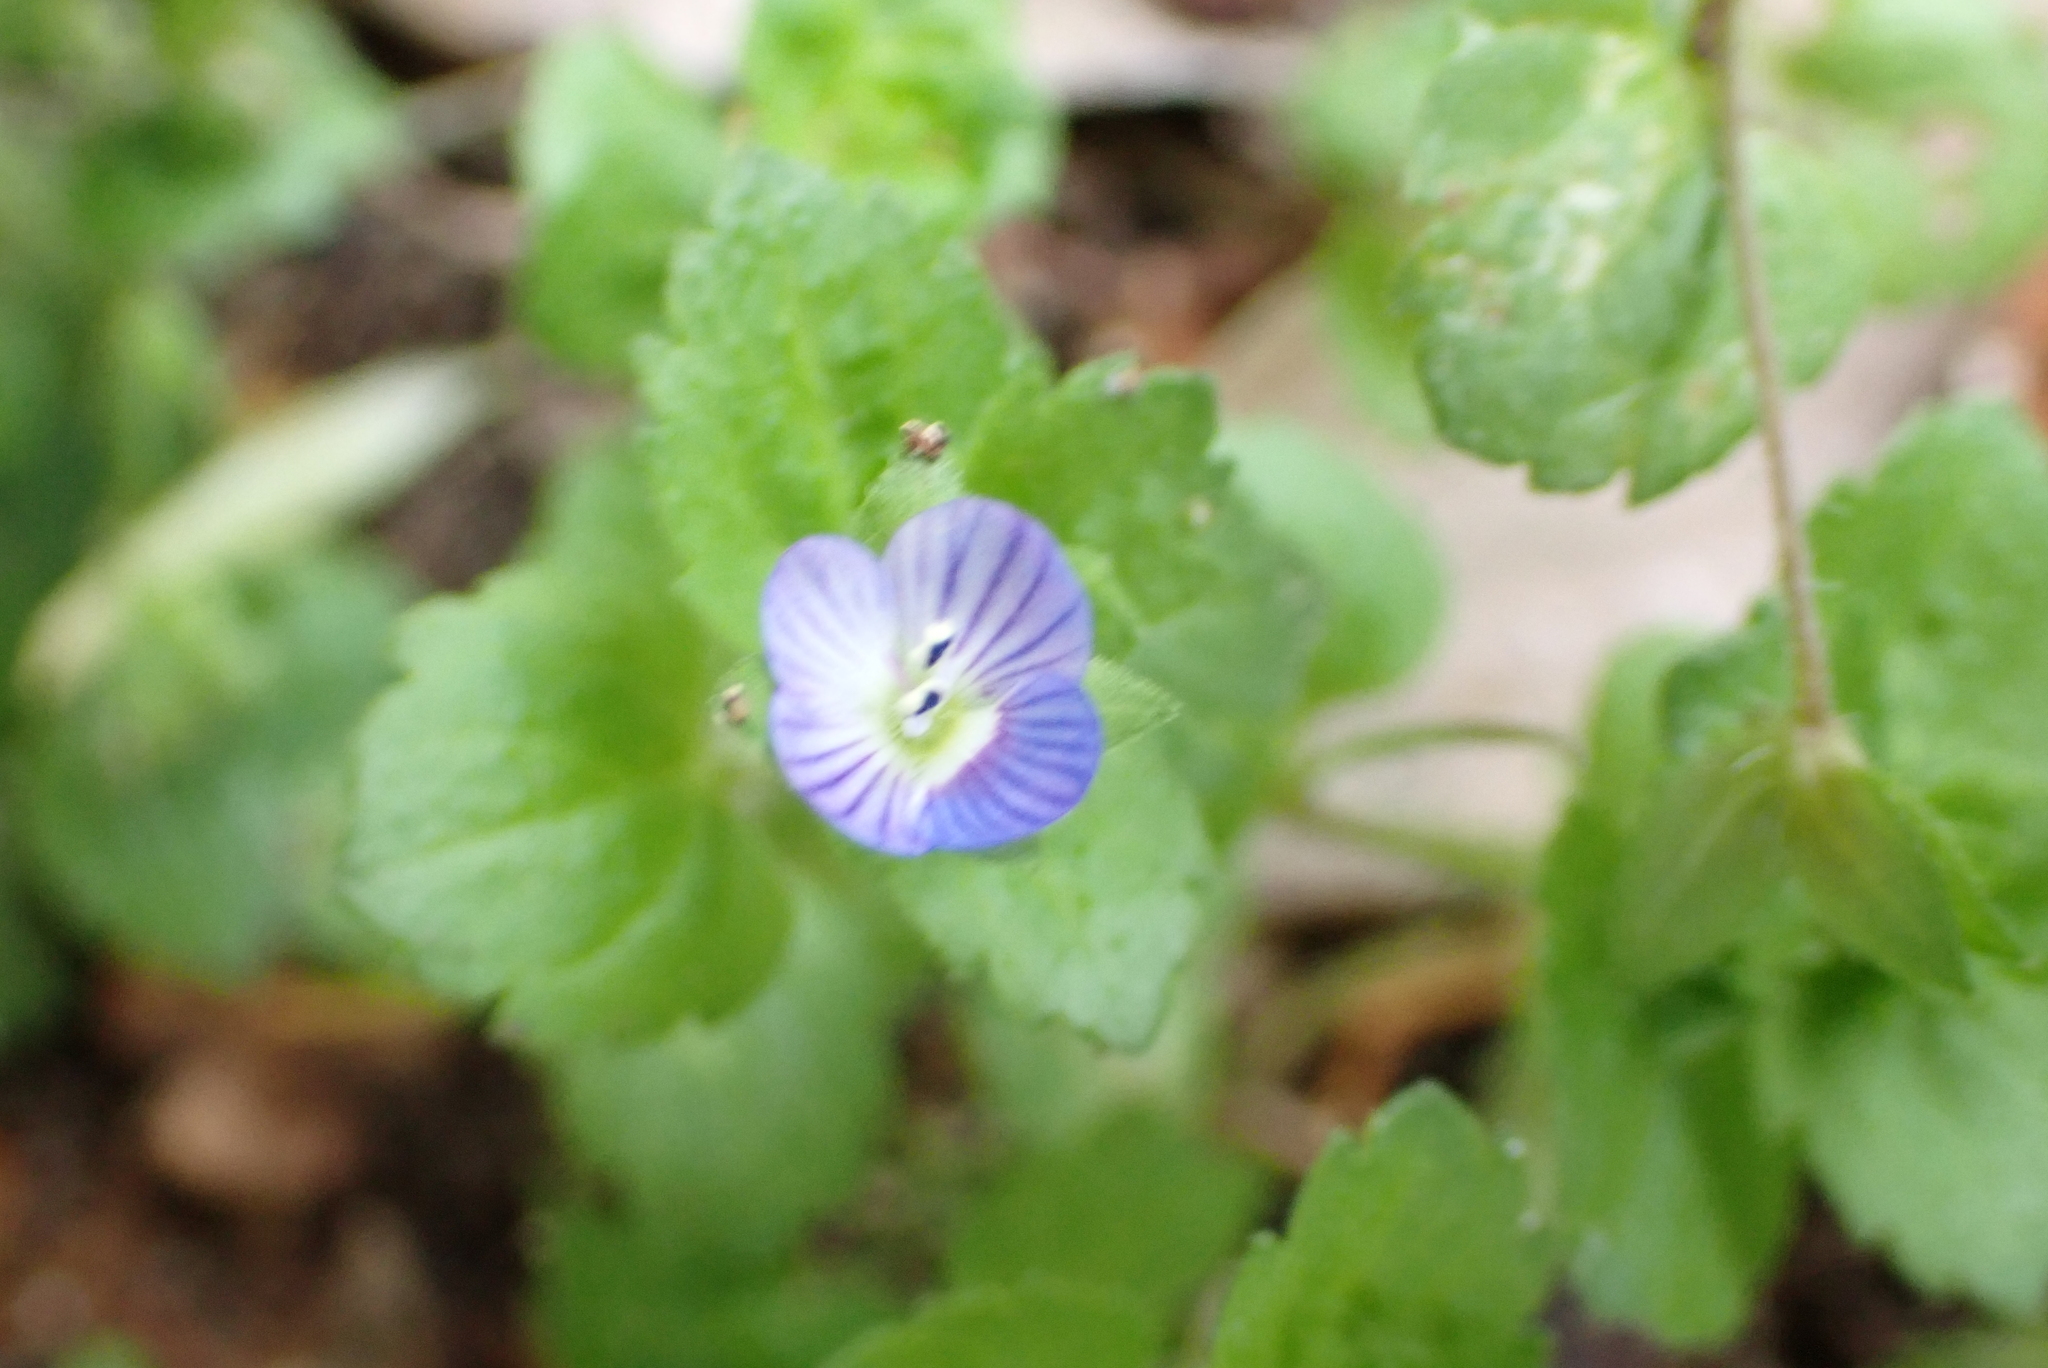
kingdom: Plantae
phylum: Tracheophyta
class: Magnoliopsida
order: Lamiales
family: Plantaginaceae
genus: Veronica
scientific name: Veronica persica
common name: Common field-speedwell
